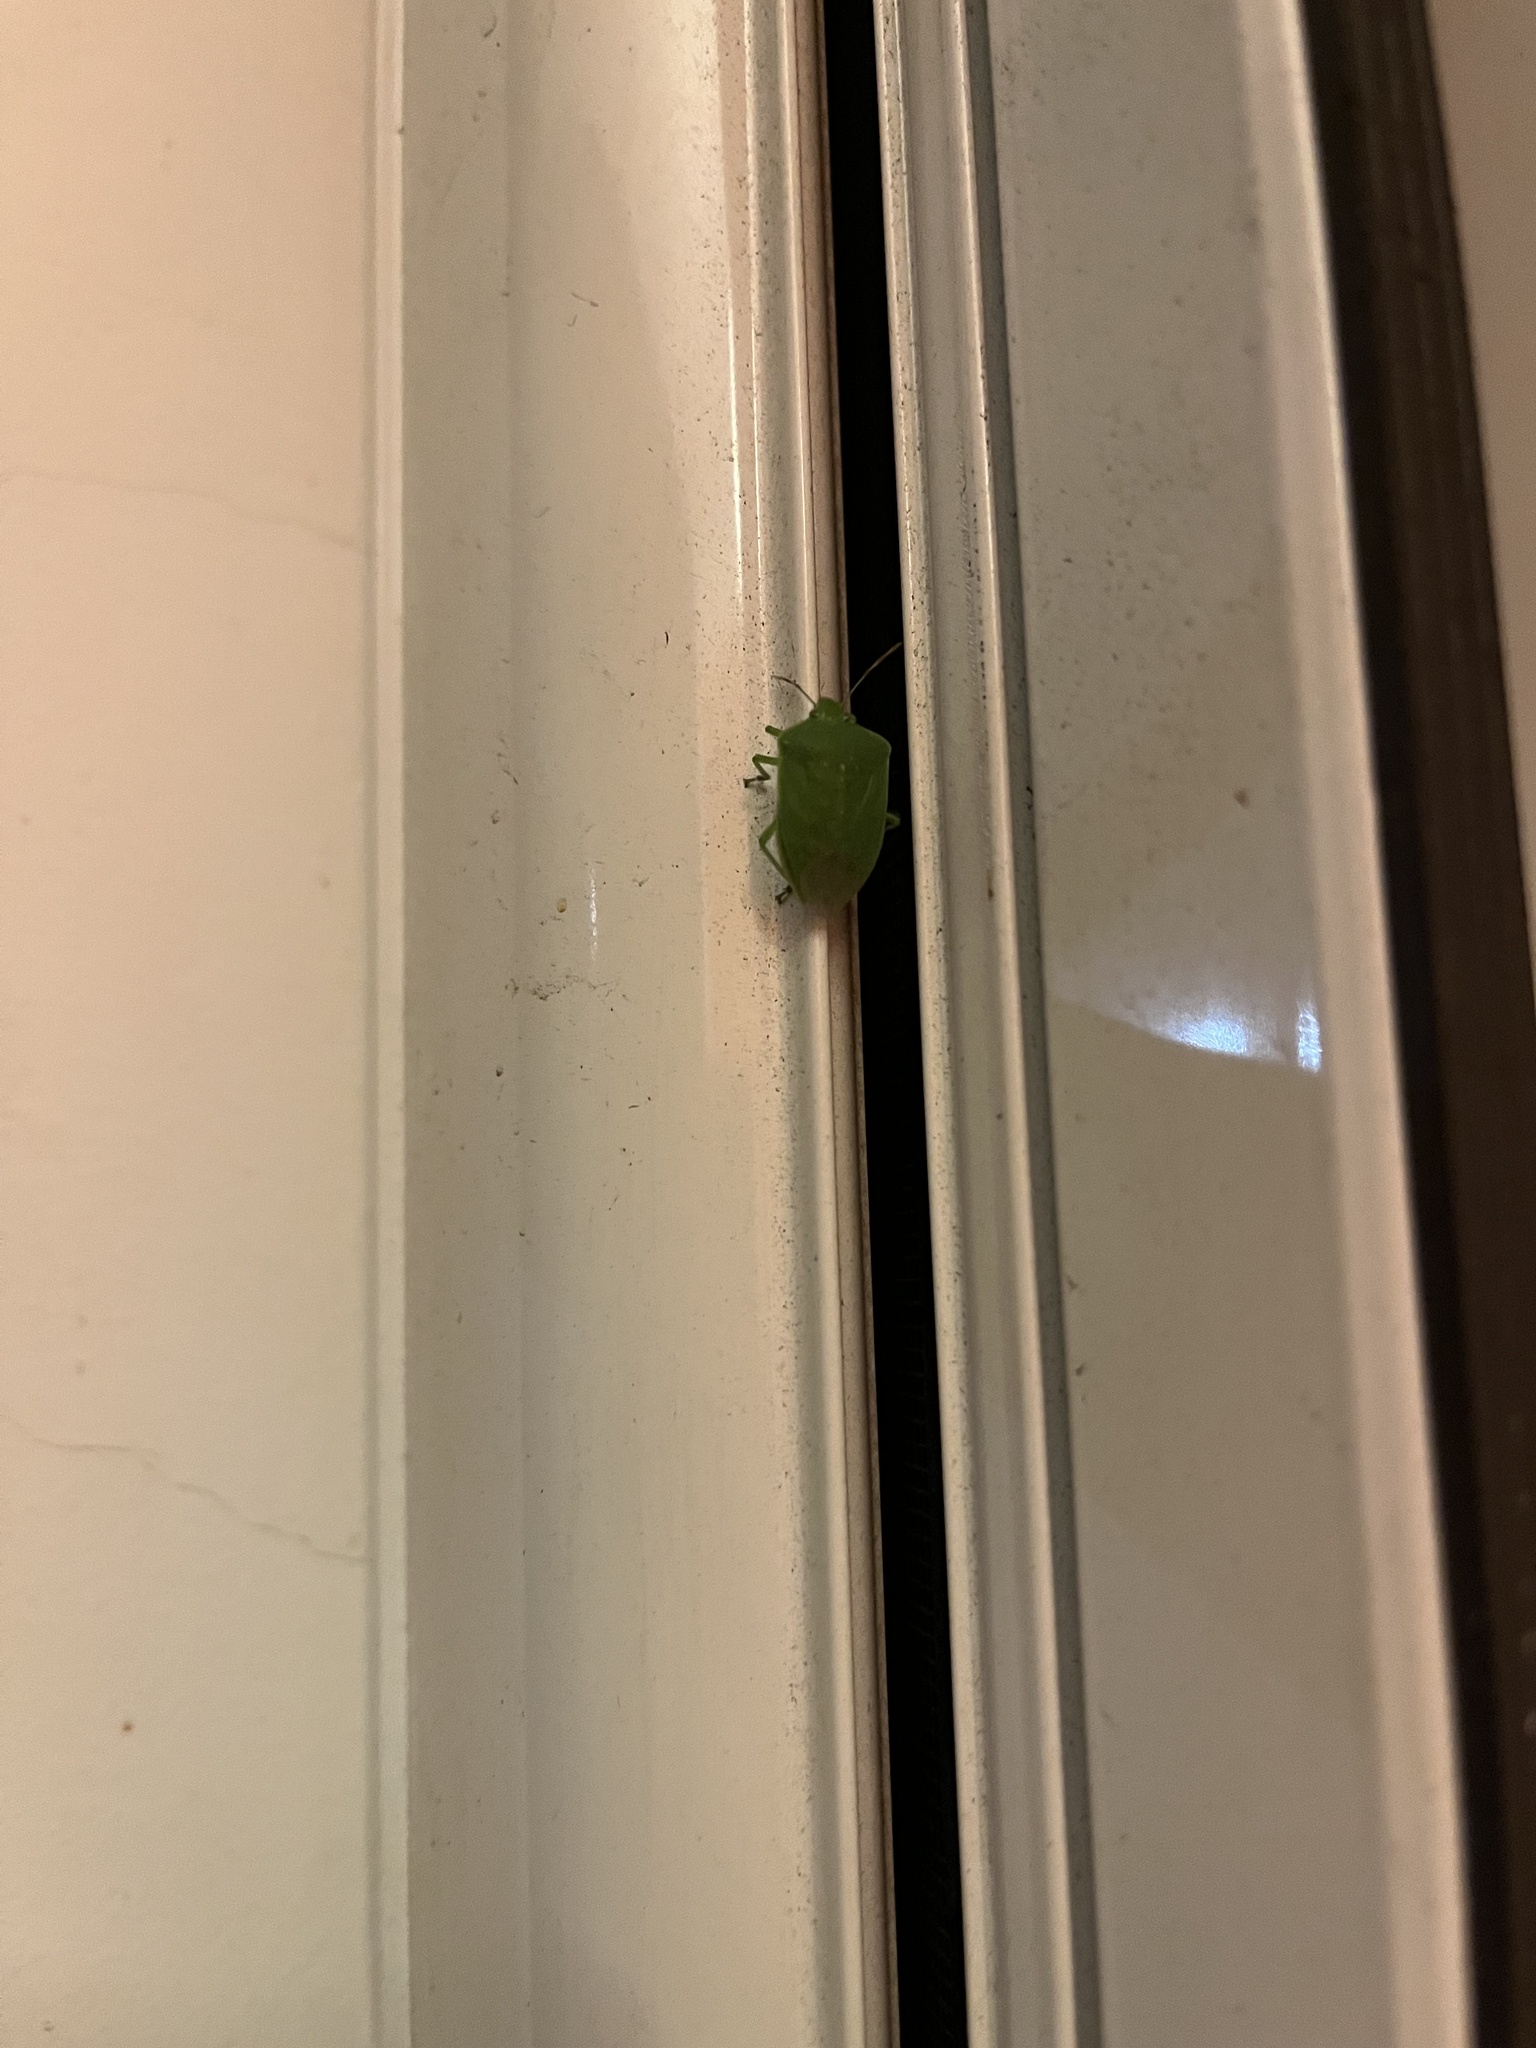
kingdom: Animalia
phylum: Arthropoda
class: Insecta
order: Hemiptera
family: Pentatomidae
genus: Nezara
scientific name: Nezara viridula
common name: Southern green stink bug
